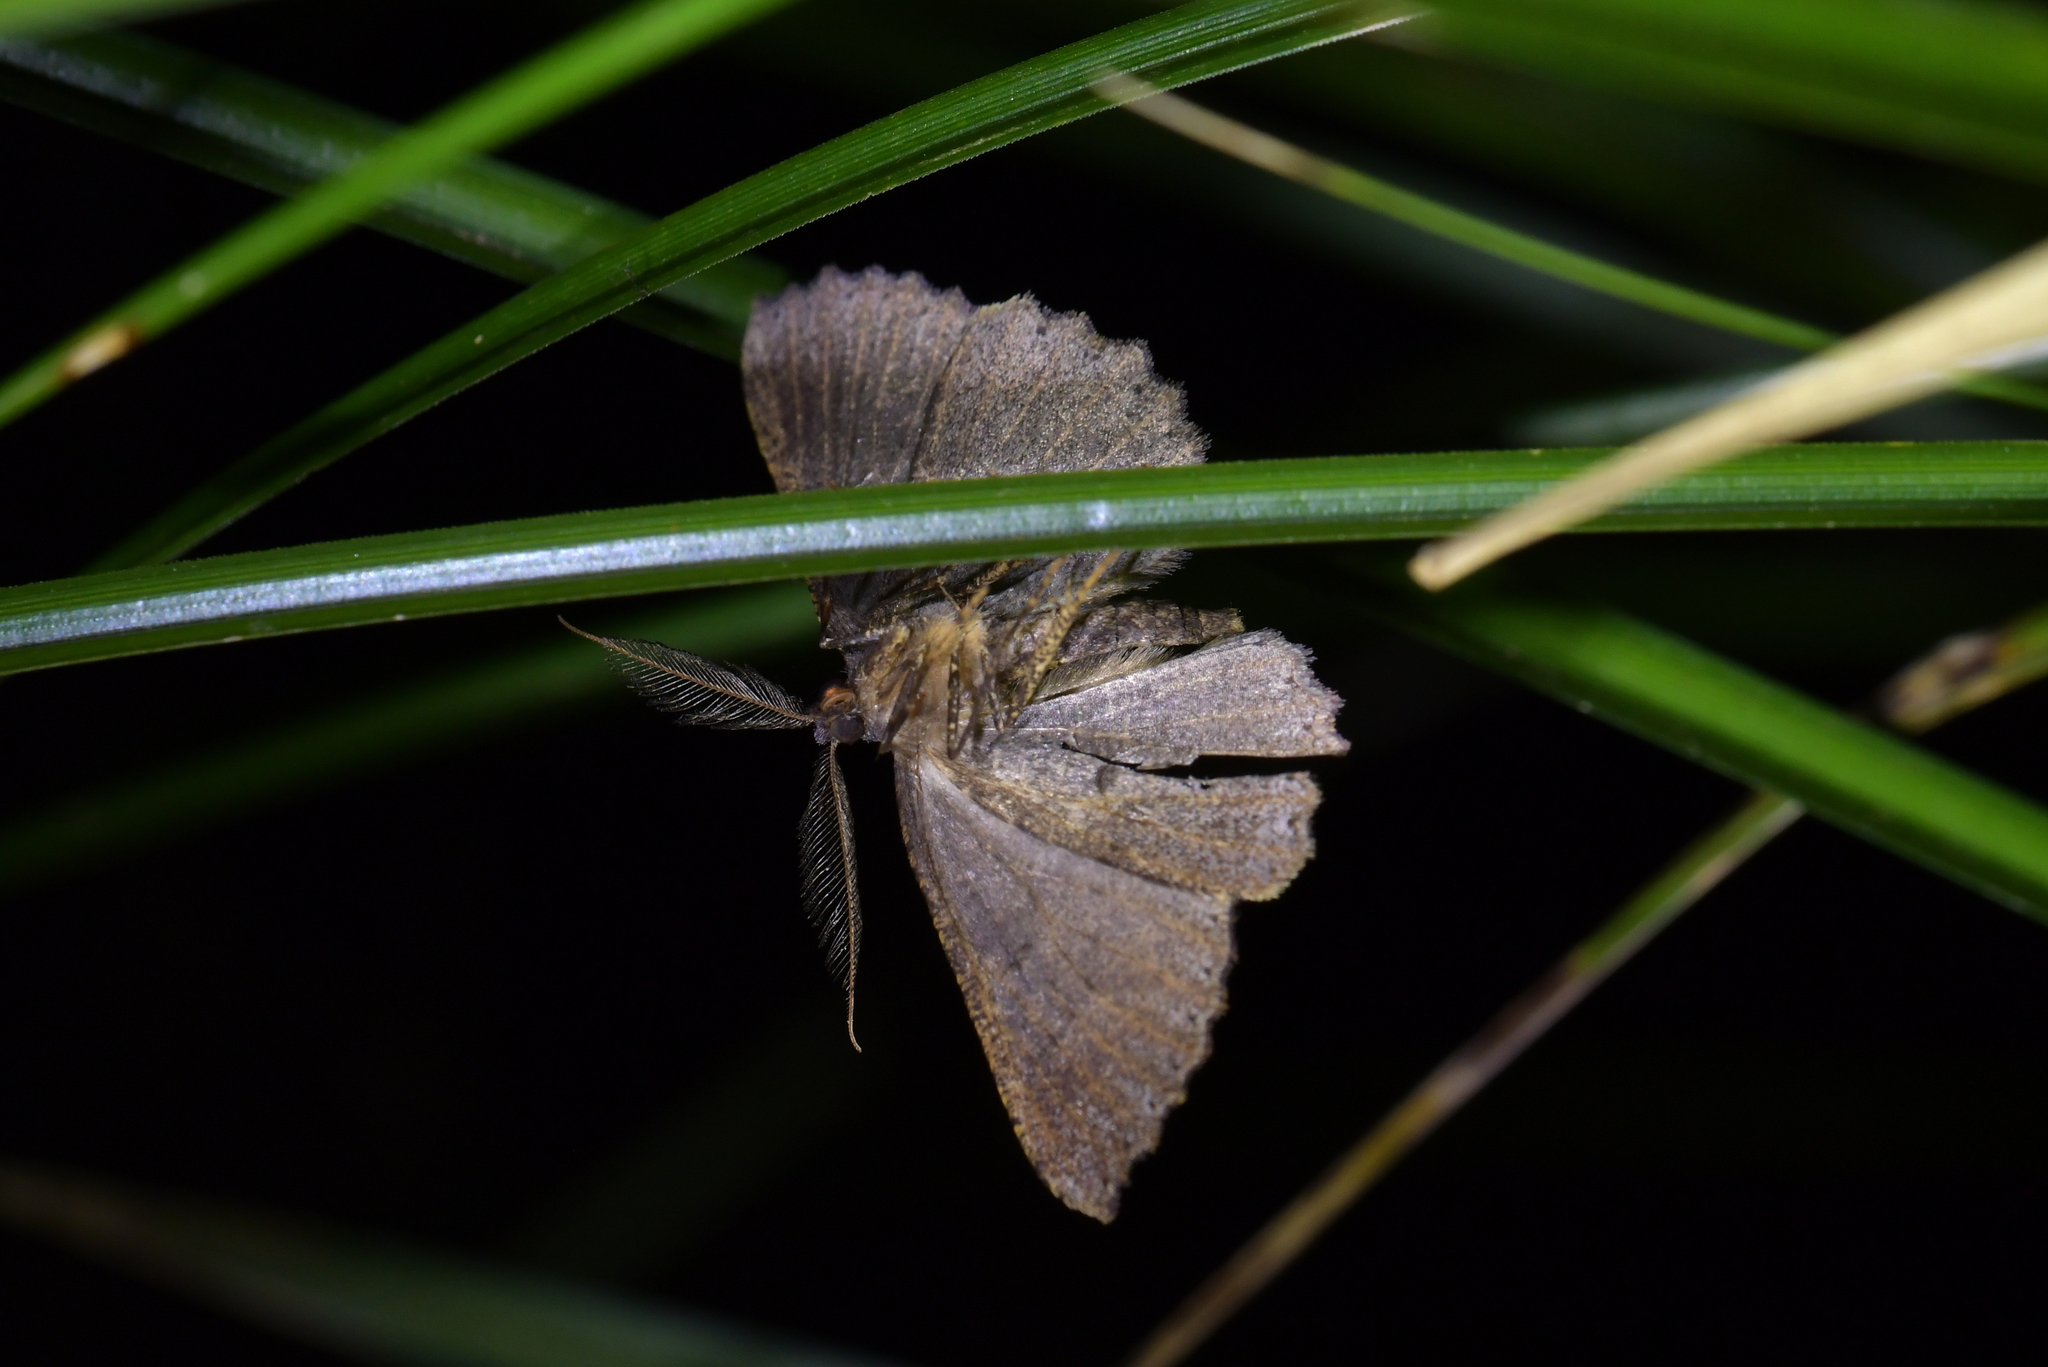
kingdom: Animalia
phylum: Arthropoda
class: Insecta
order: Lepidoptera
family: Geometridae
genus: Cleora
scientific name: Cleora scriptaria
